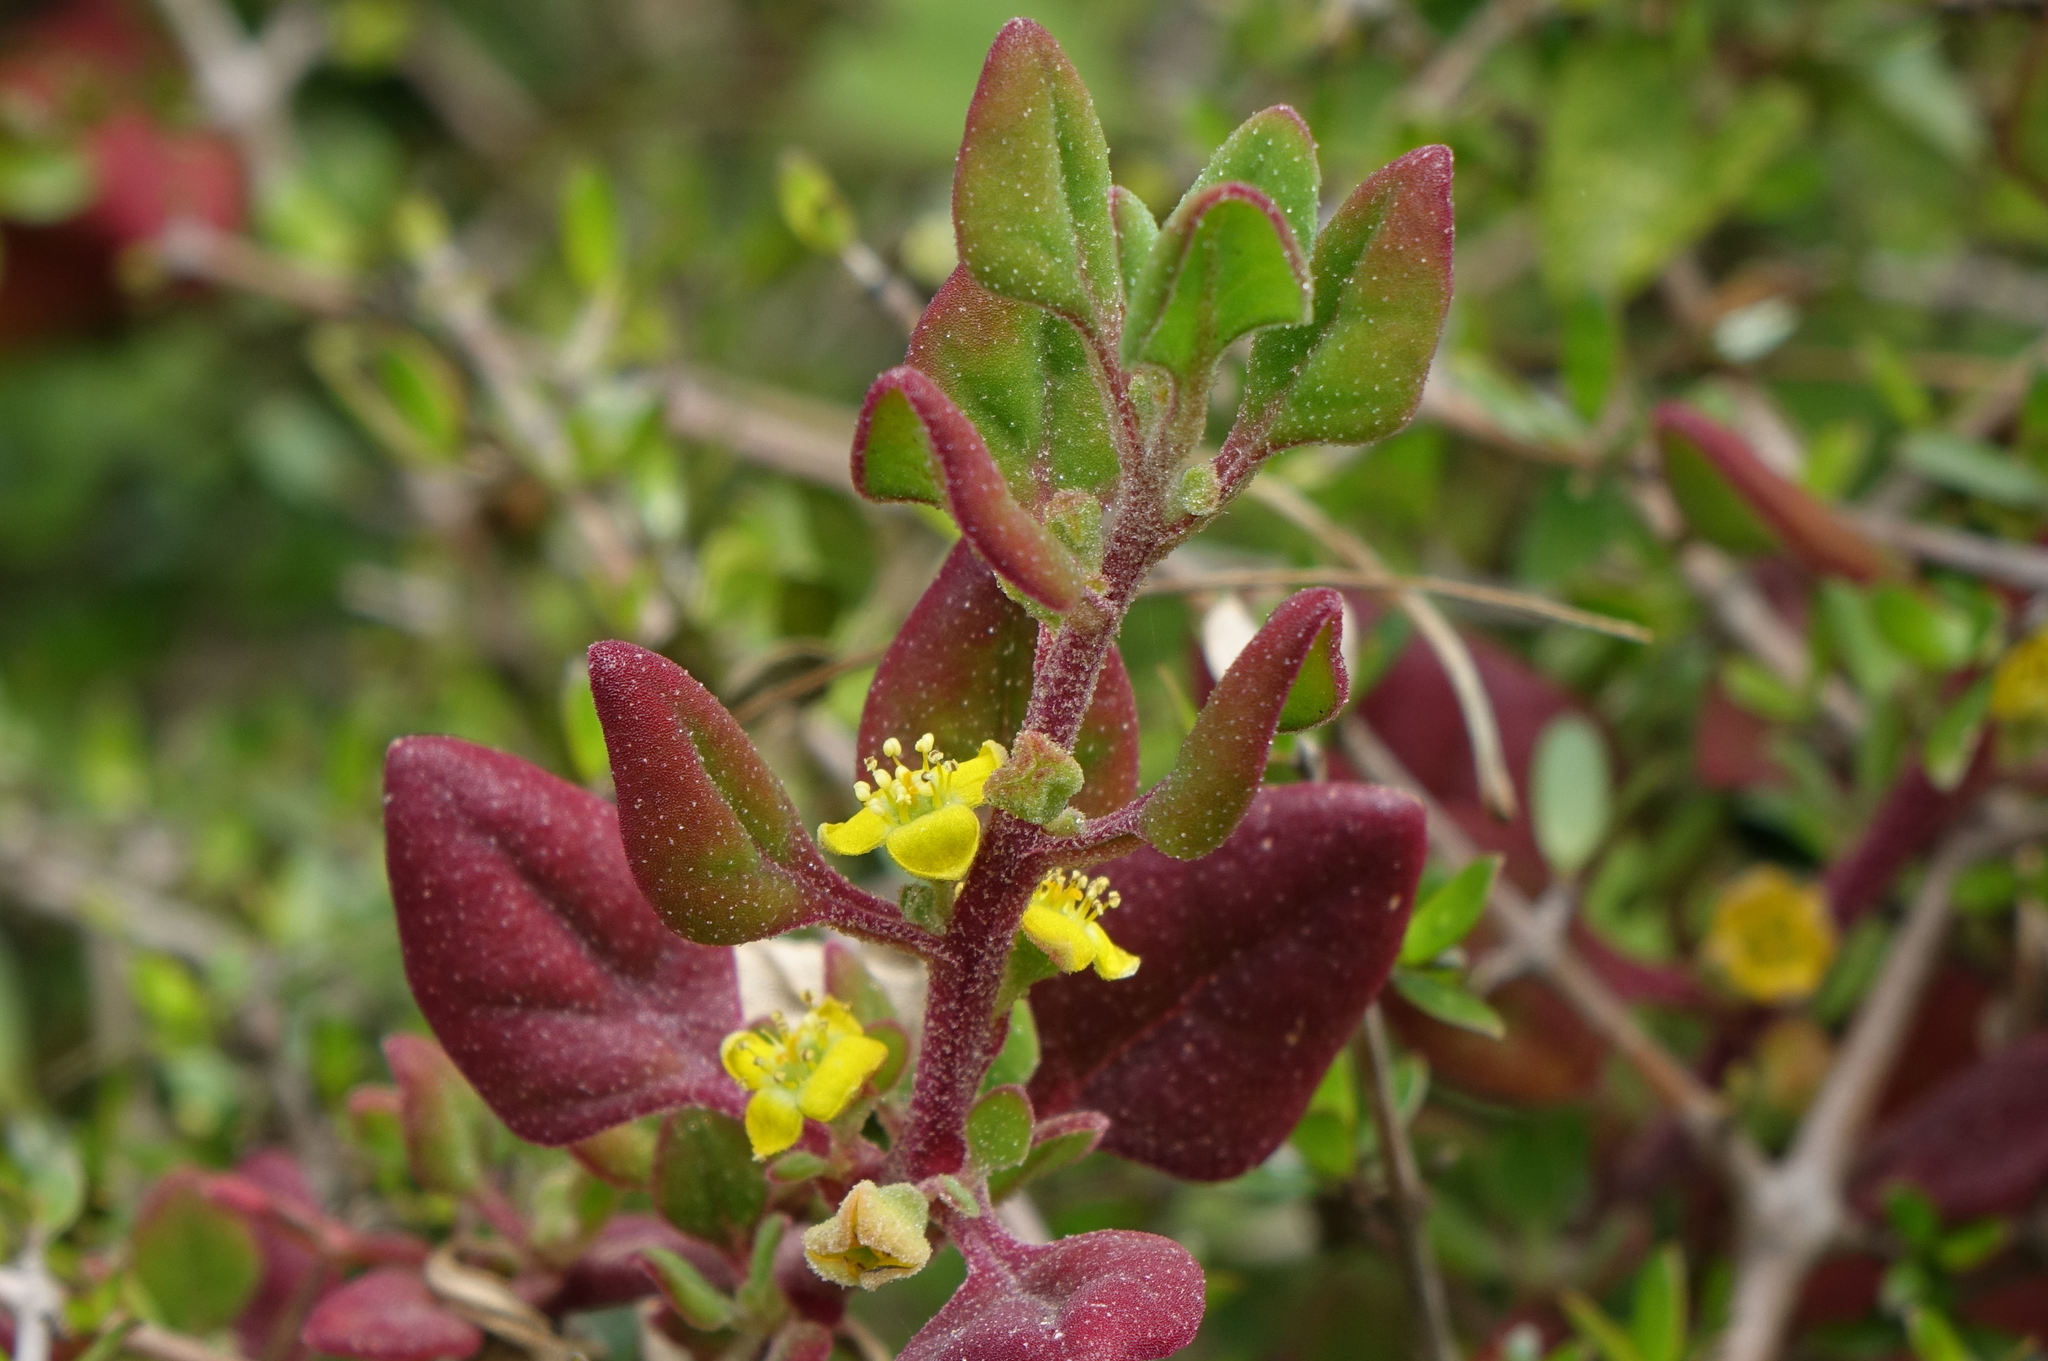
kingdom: Plantae
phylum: Tracheophyta
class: Magnoliopsida
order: Caryophyllales
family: Aizoaceae
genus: Tetragonia
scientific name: Tetragonia implexicoma
